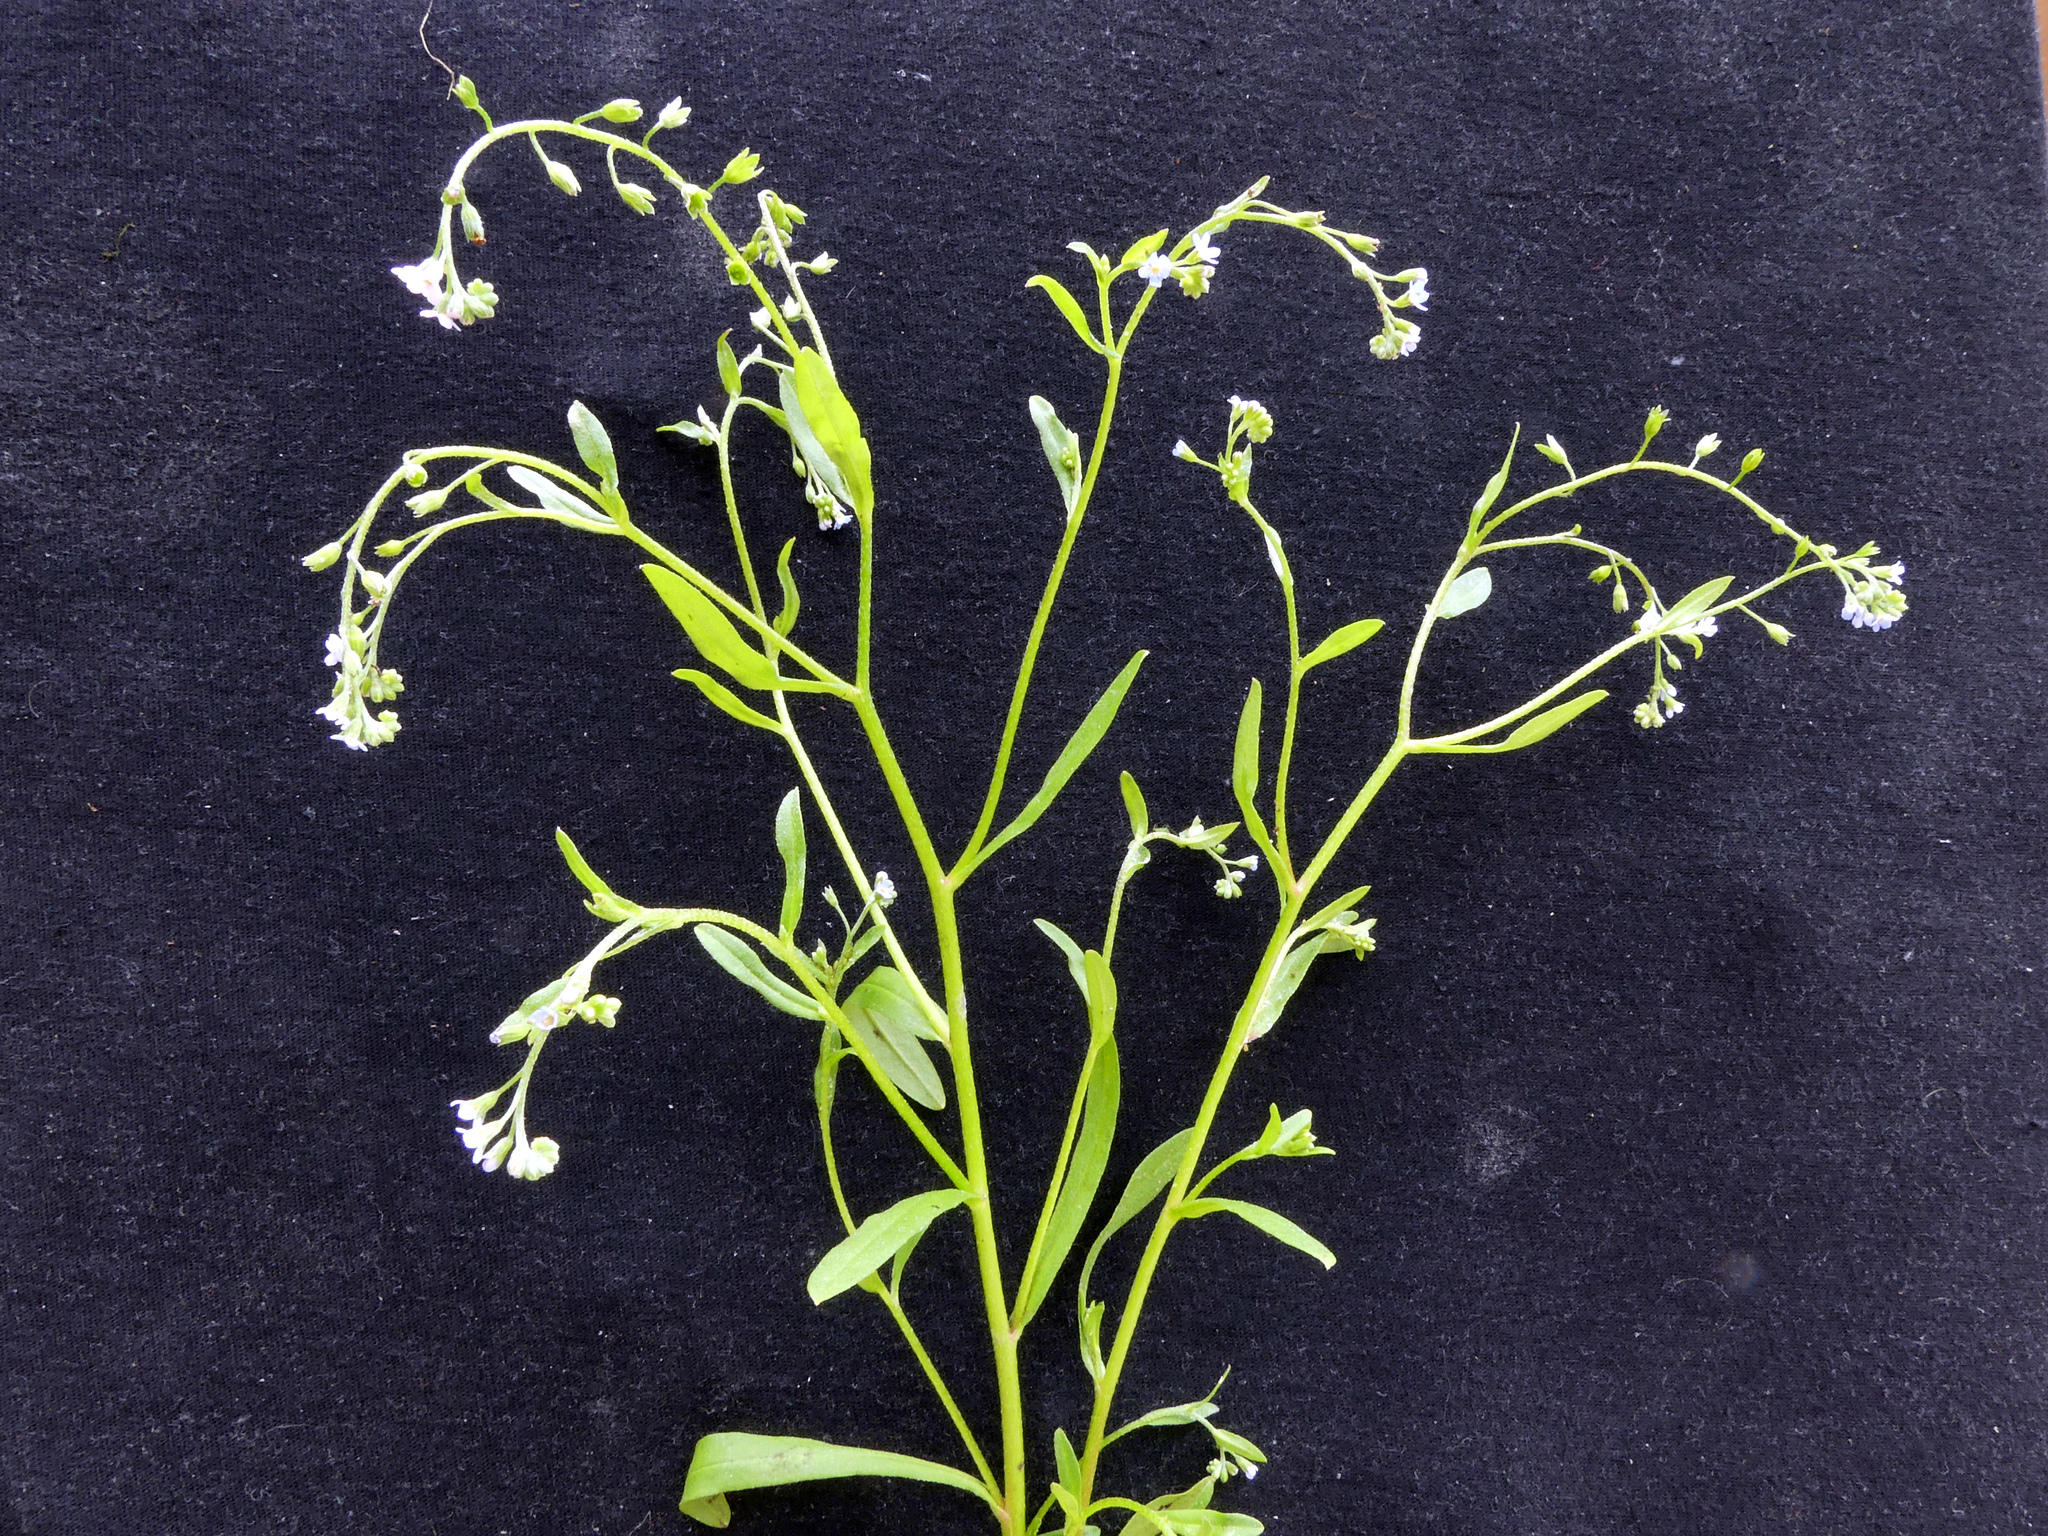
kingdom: Plantae
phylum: Tracheophyta
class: Magnoliopsida
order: Boraginales
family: Boraginaceae
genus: Myosotis
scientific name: Myosotis scorpioides
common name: Water forget-me-not
